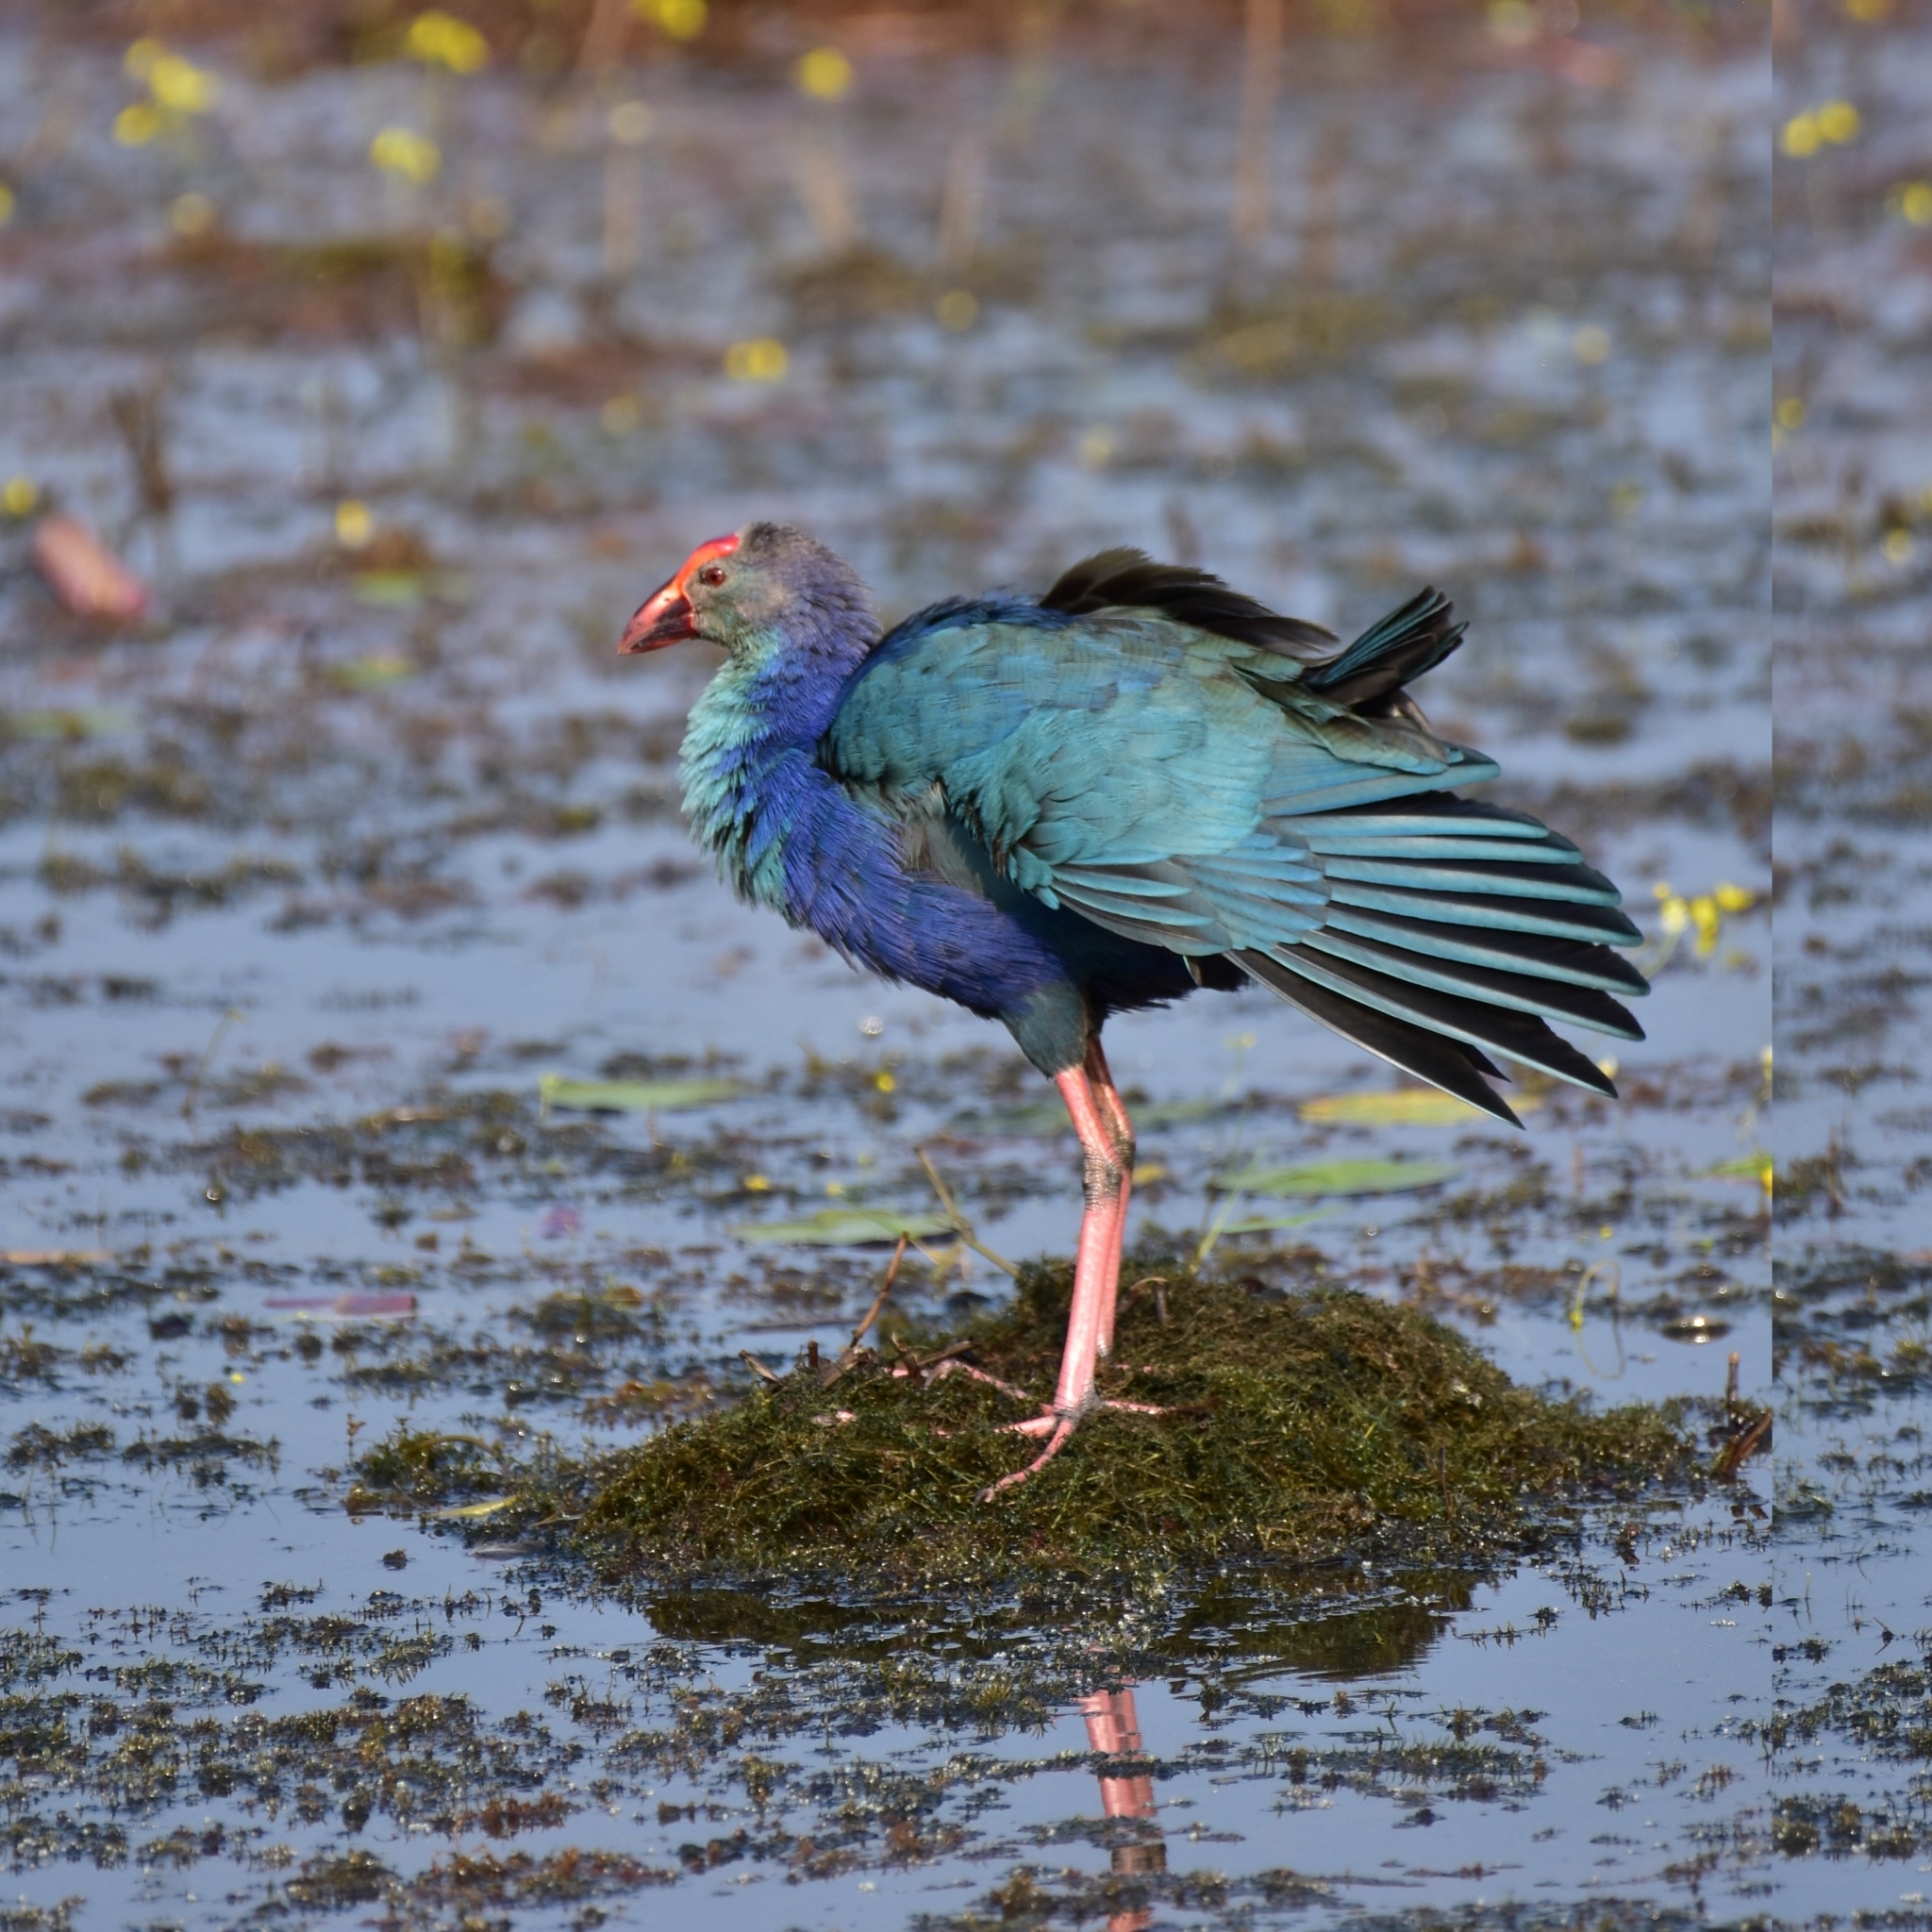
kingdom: Animalia
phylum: Chordata
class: Aves
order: Gruiformes
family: Rallidae
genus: Porphyrio
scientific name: Porphyrio porphyrio
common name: Purple swamphen
